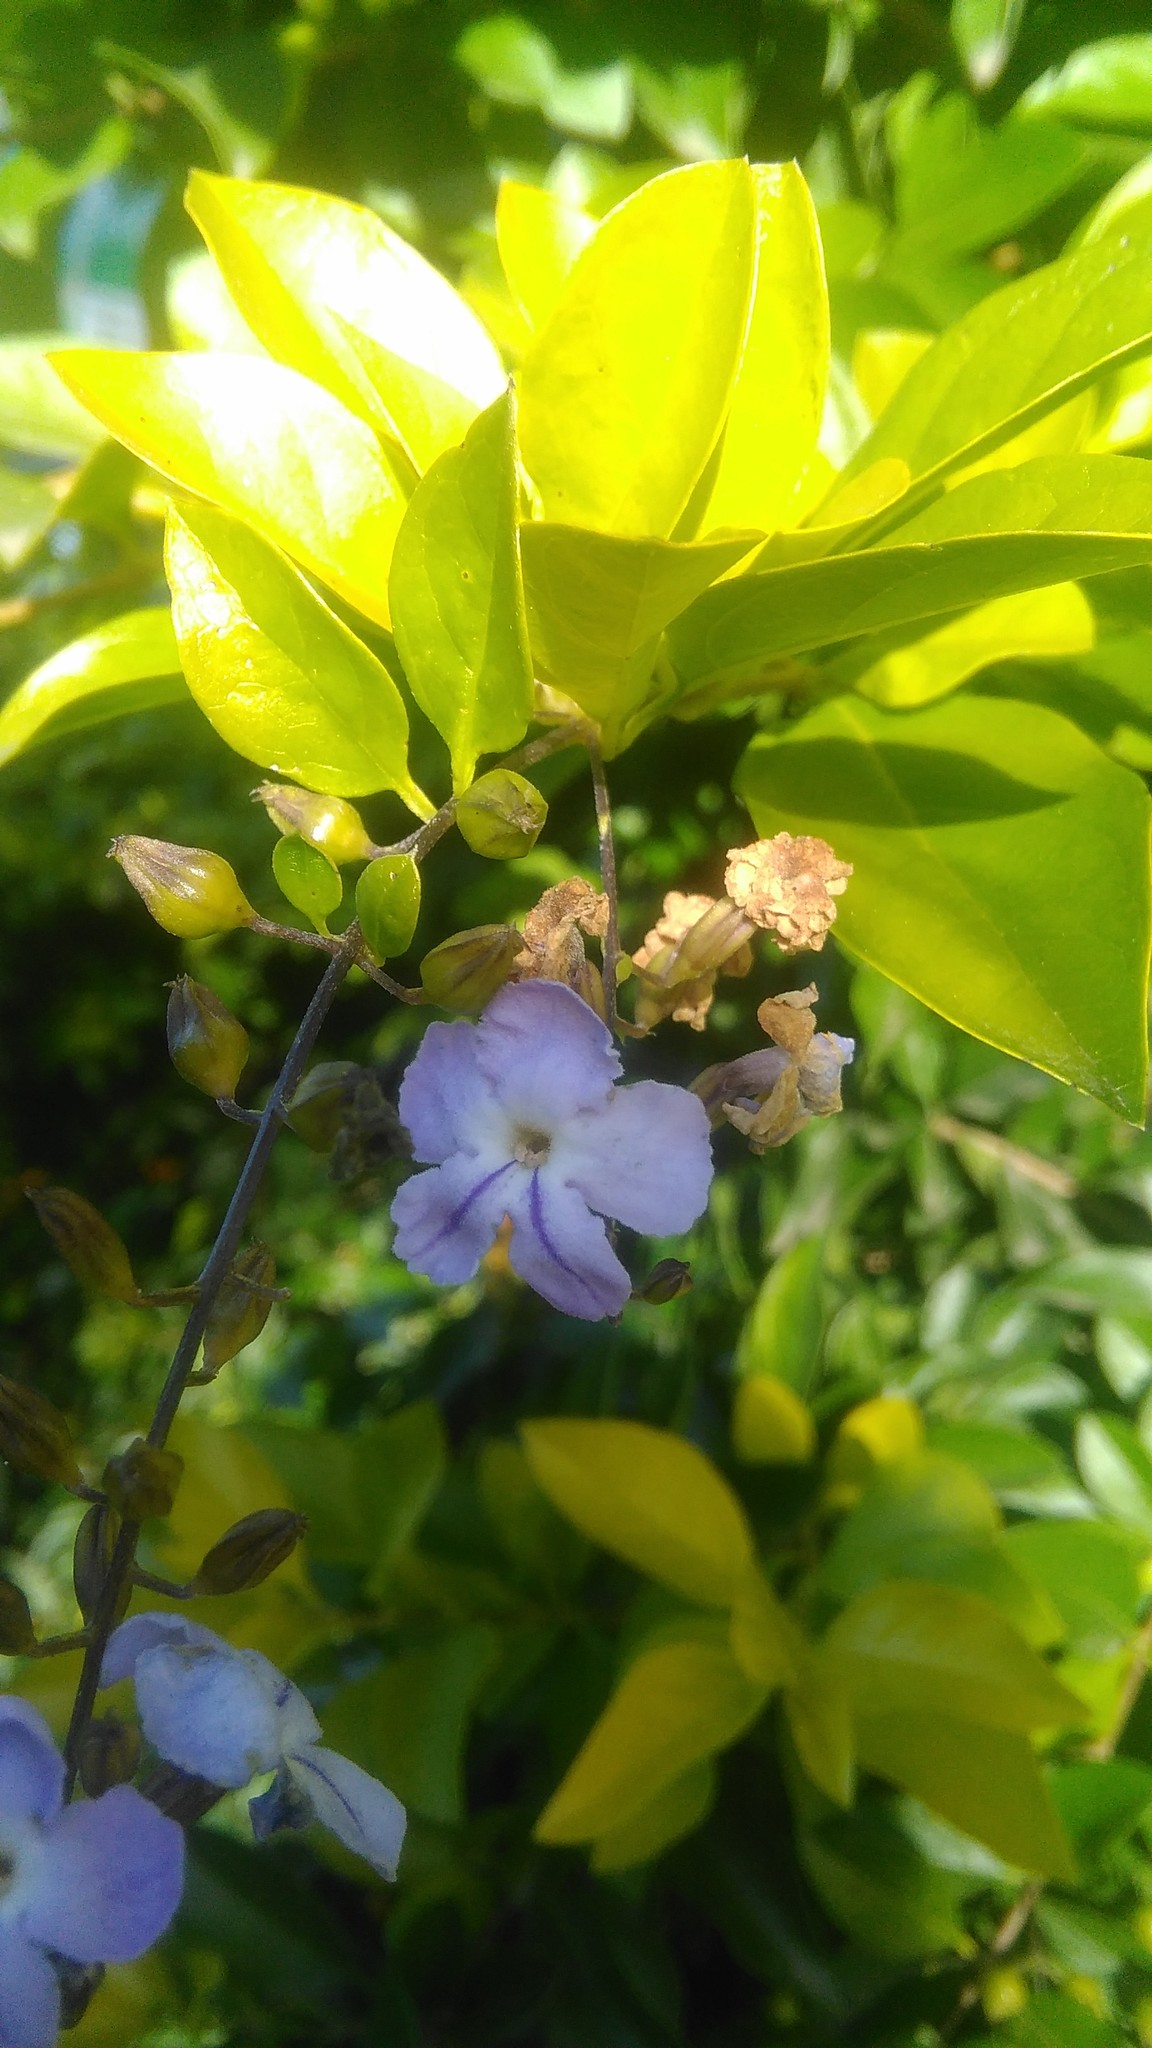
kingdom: Plantae
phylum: Tracheophyta
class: Magnoliopsida
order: Lamiales
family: Verbenaceae
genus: Duranta
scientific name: Duranta erecta
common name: Golden dewdrops
